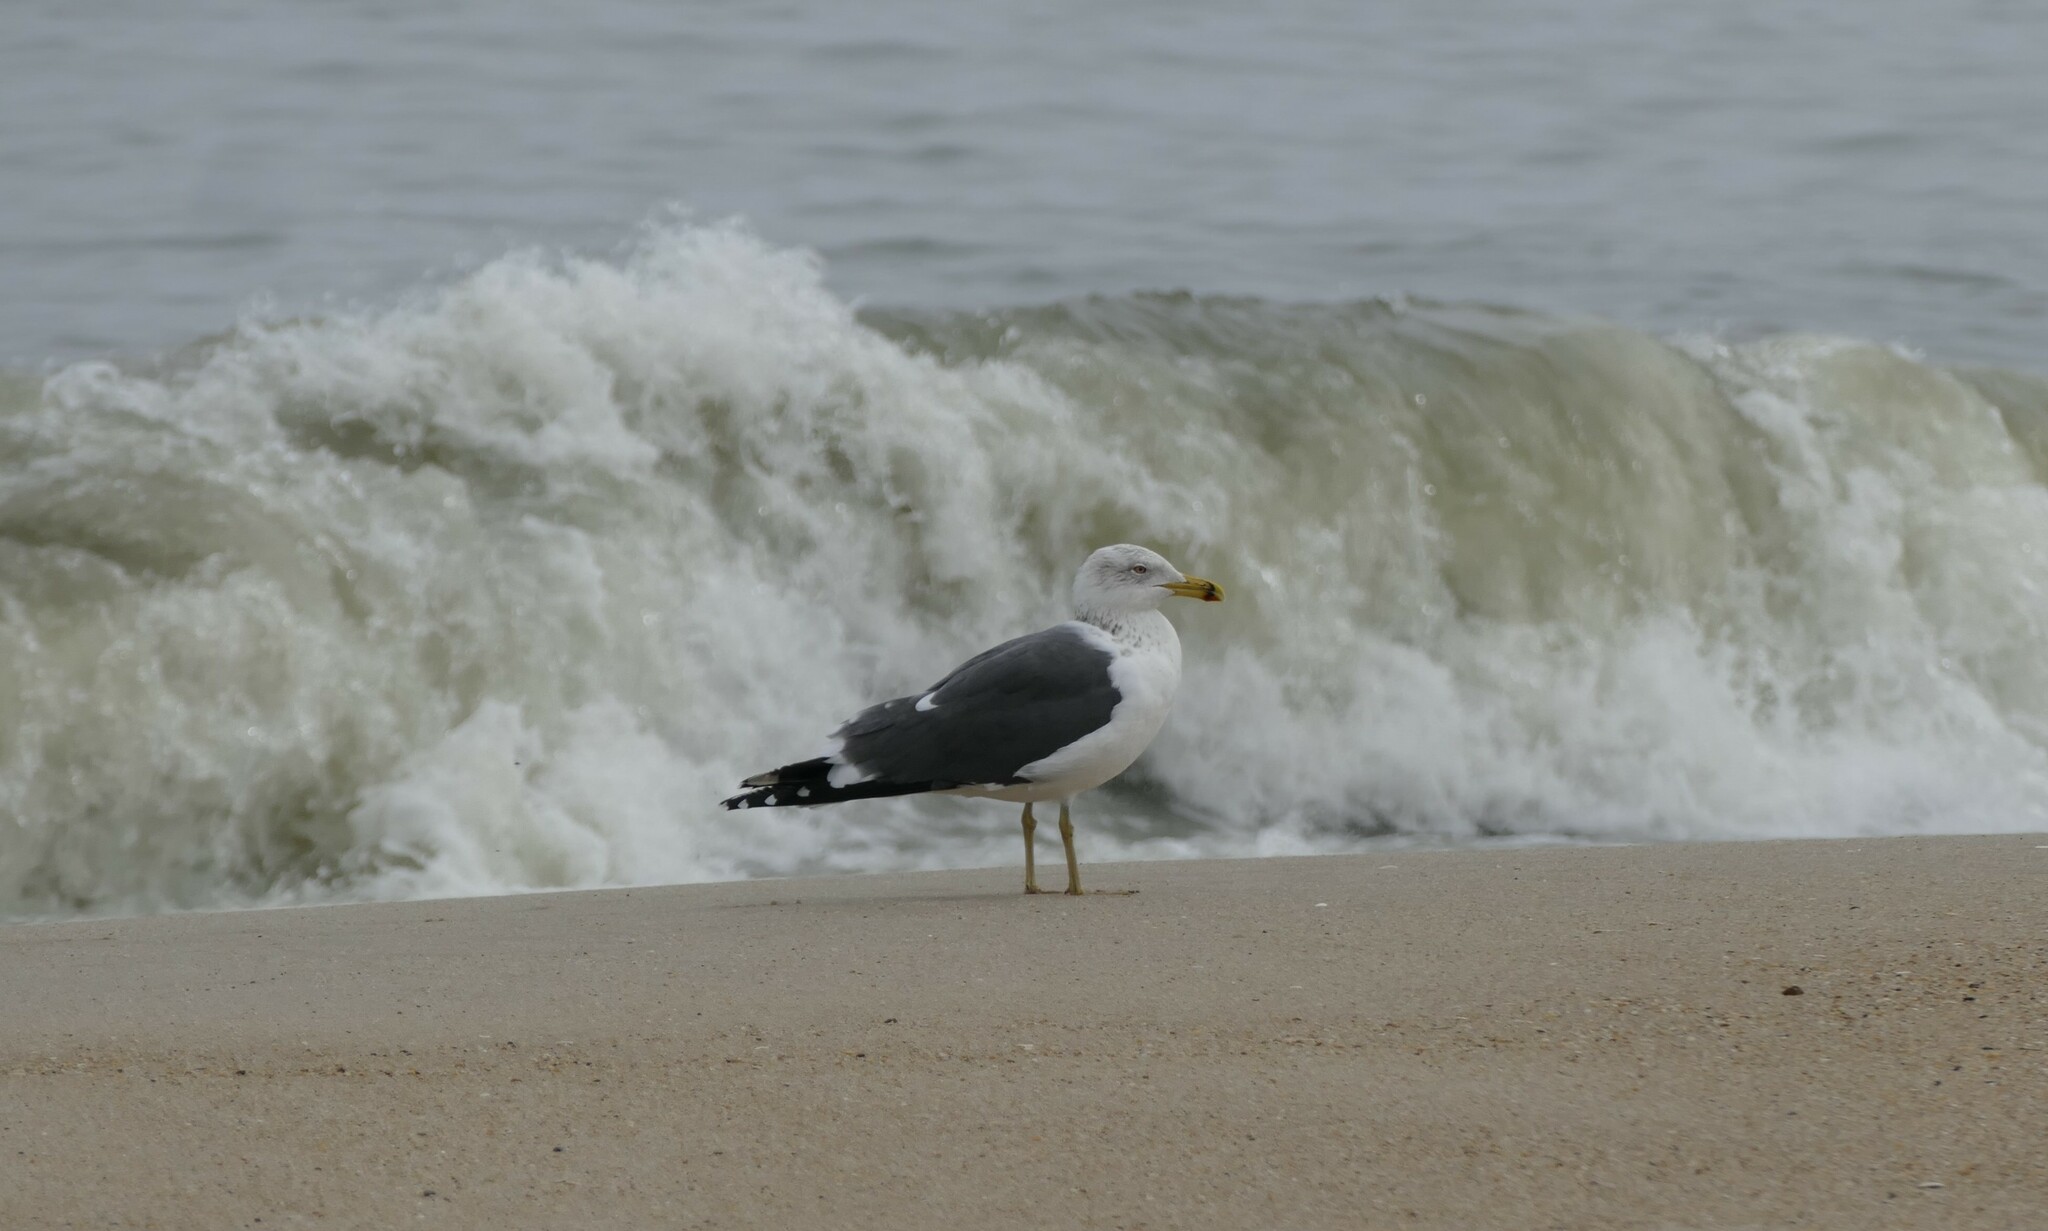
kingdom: Animalia
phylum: Chordata
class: Aves
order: Charadriiformes
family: Laridae
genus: Larus
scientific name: Larus fuscus
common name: Lesser black-backed gull
